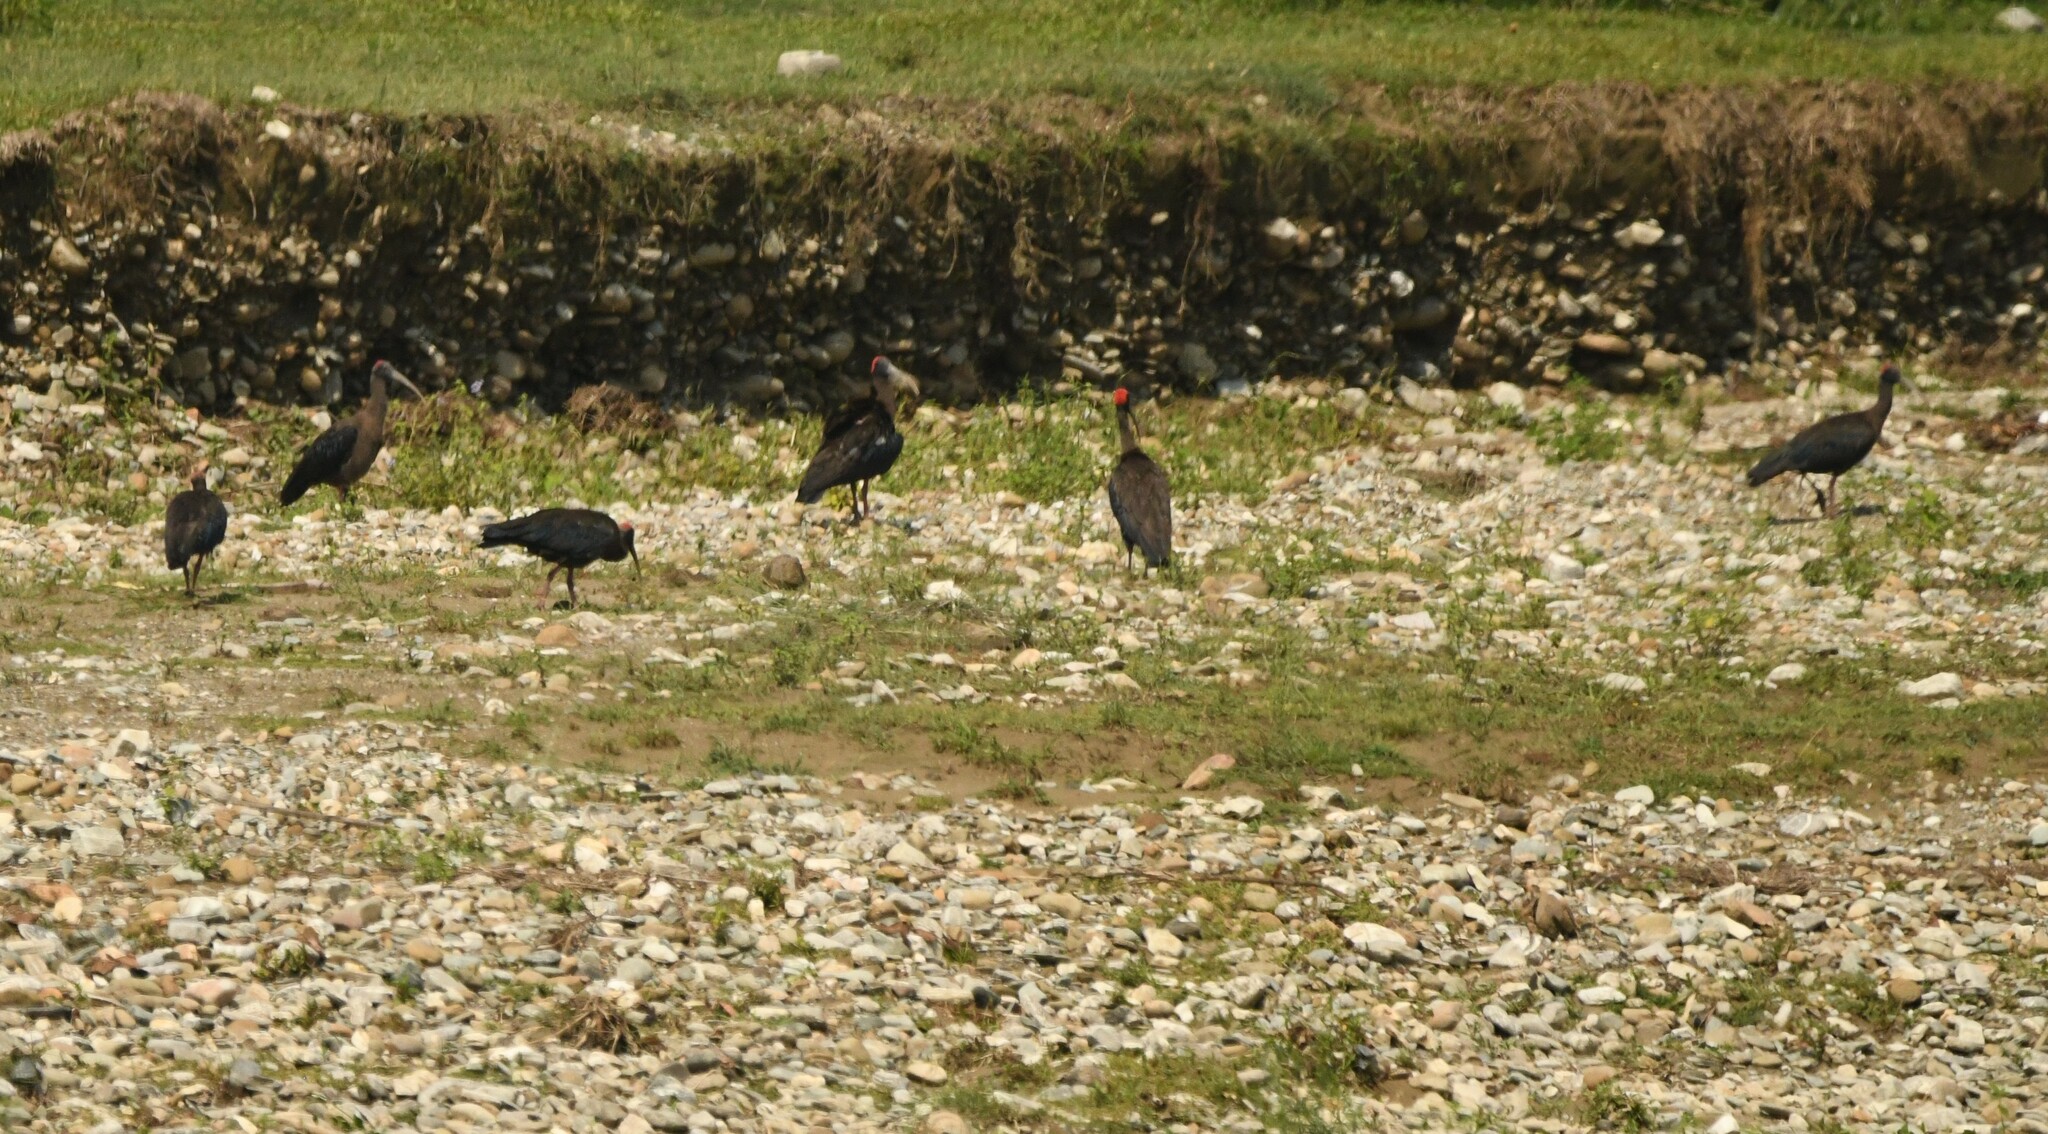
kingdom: Animalia
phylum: Chordata
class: Aves
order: Pelecaniformes
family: Threskiornithidae
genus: Pseudibis
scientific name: Pseudibis papillosa
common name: Red-naped ibis
